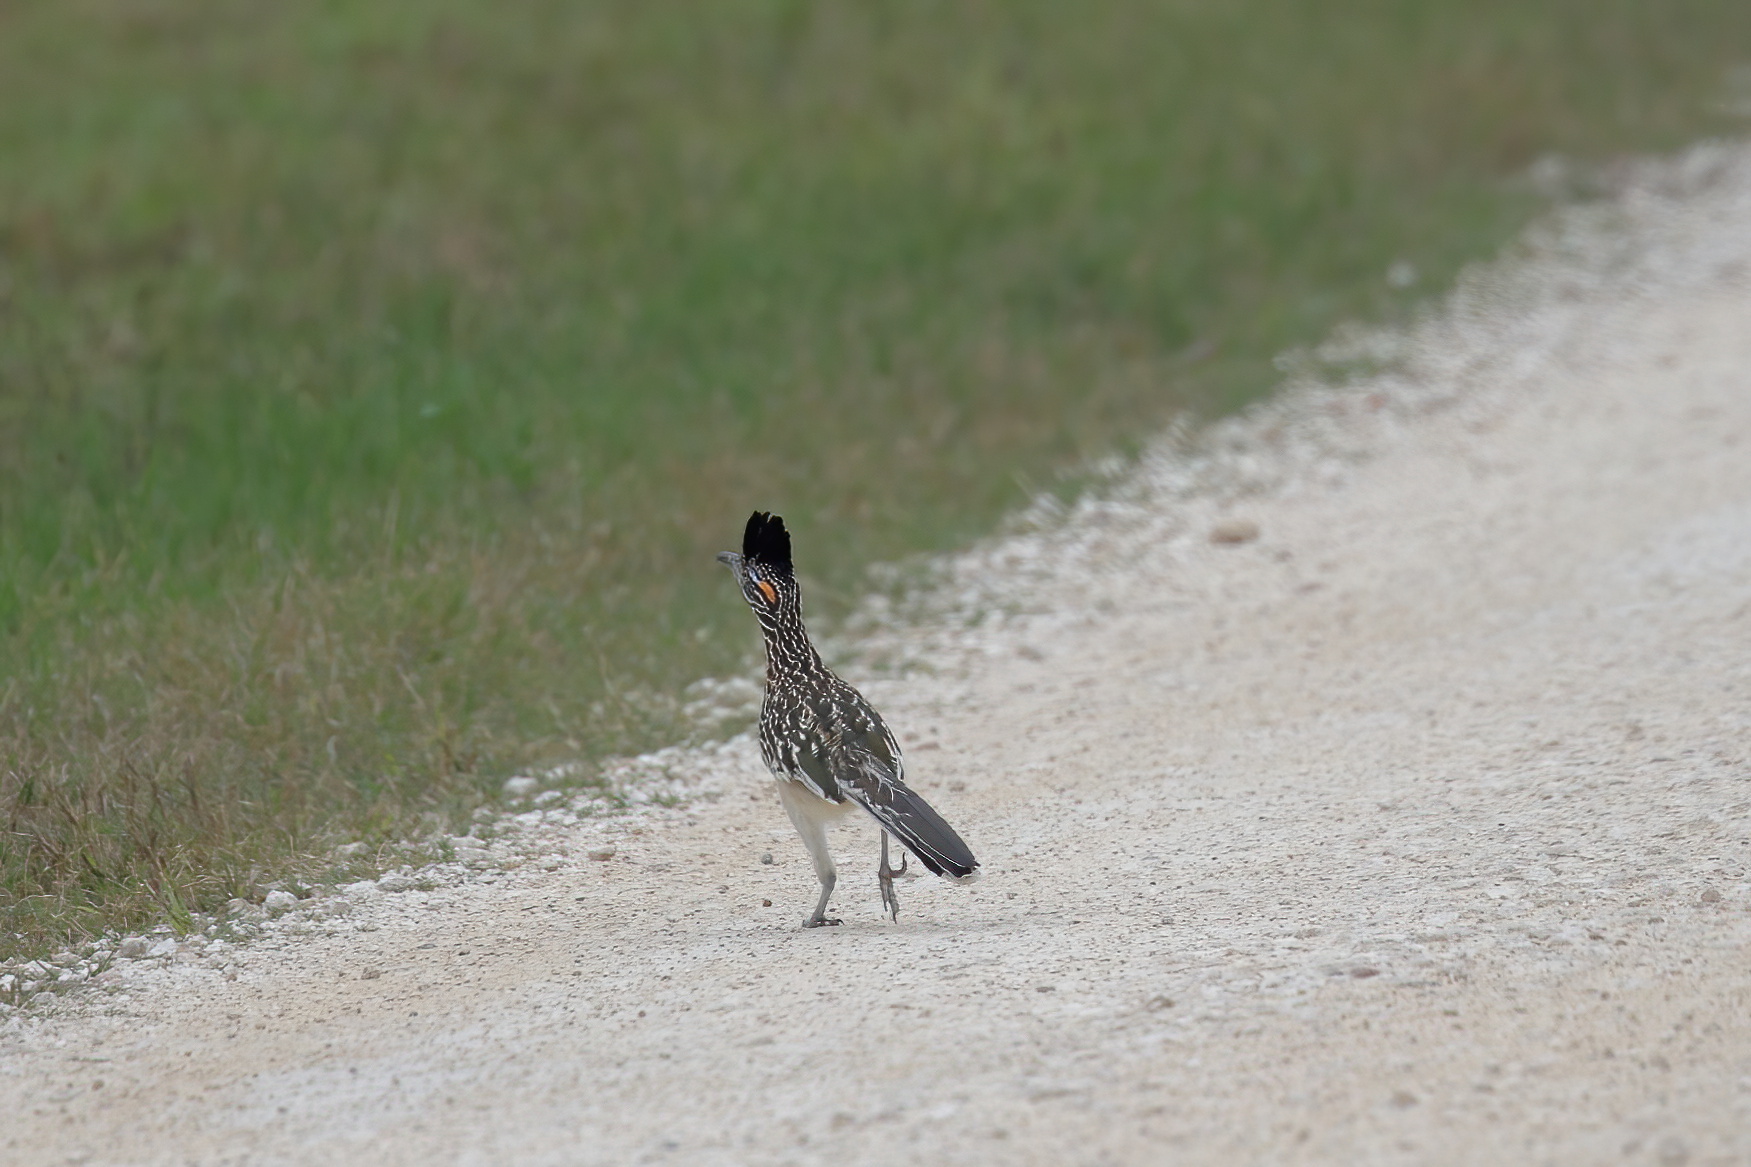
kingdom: Animalia
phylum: Chordata
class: Aves
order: Cuculiformes
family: Cuculidae
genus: Geococcyx
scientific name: Geococcyx californianus
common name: Greater roadrunner
